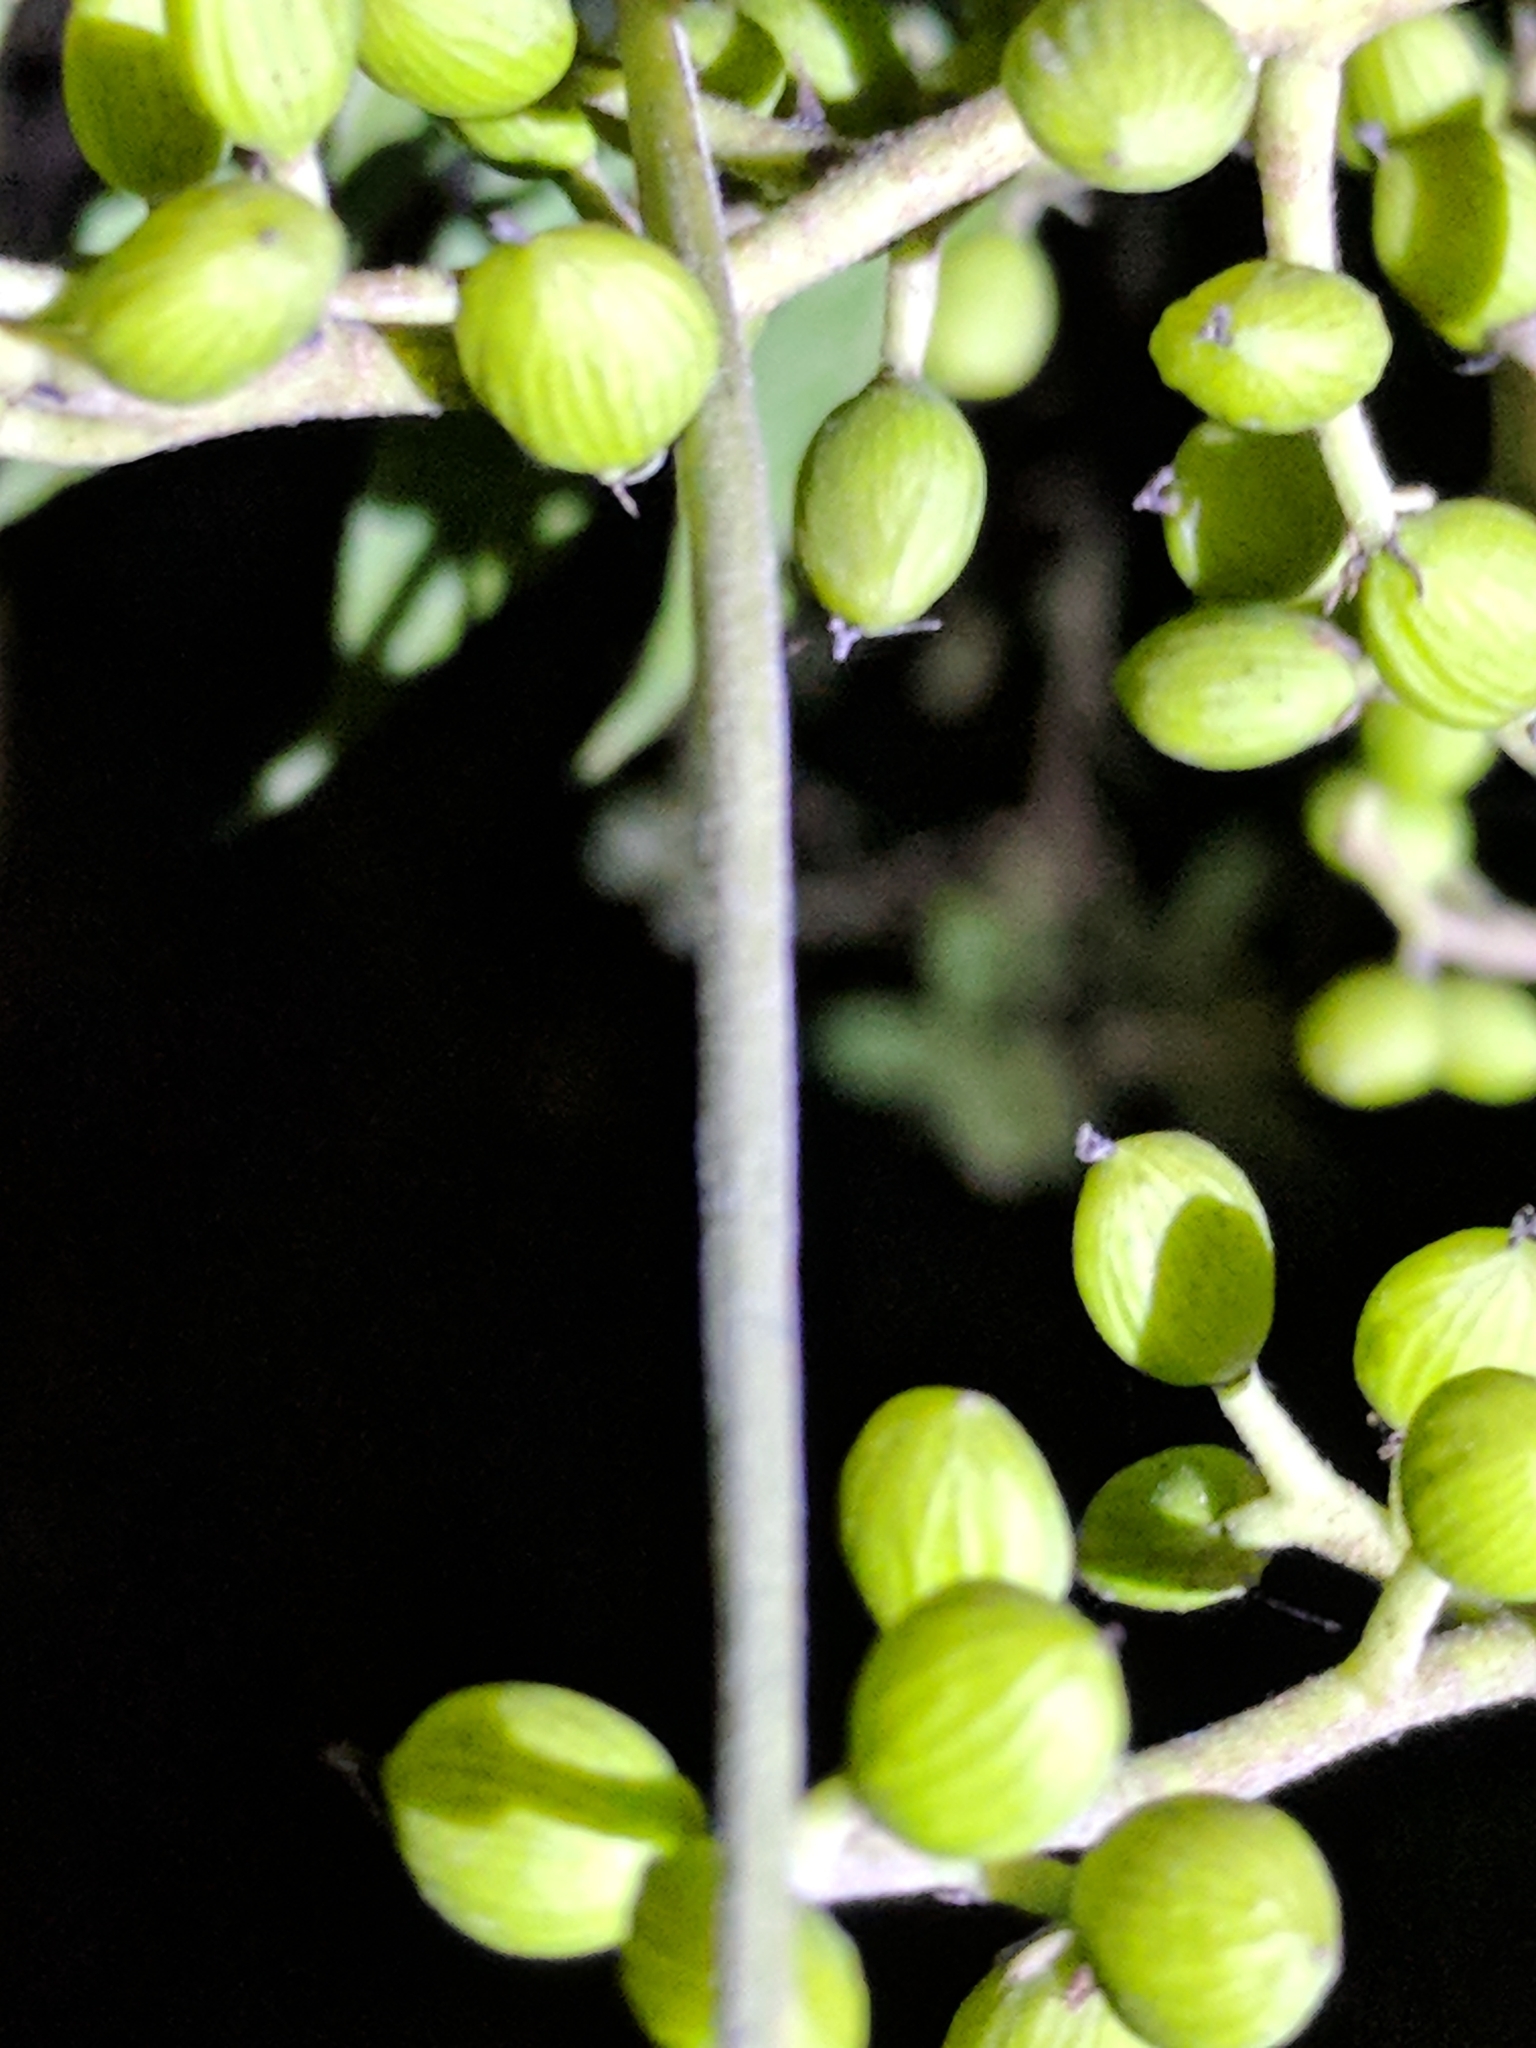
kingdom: Plantae
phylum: Tracheophyta
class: Magnoliopsida
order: Sapindales
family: Anacardiaceae
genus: Pistacia
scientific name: Pistacia chinensis
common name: Chinese pistache
